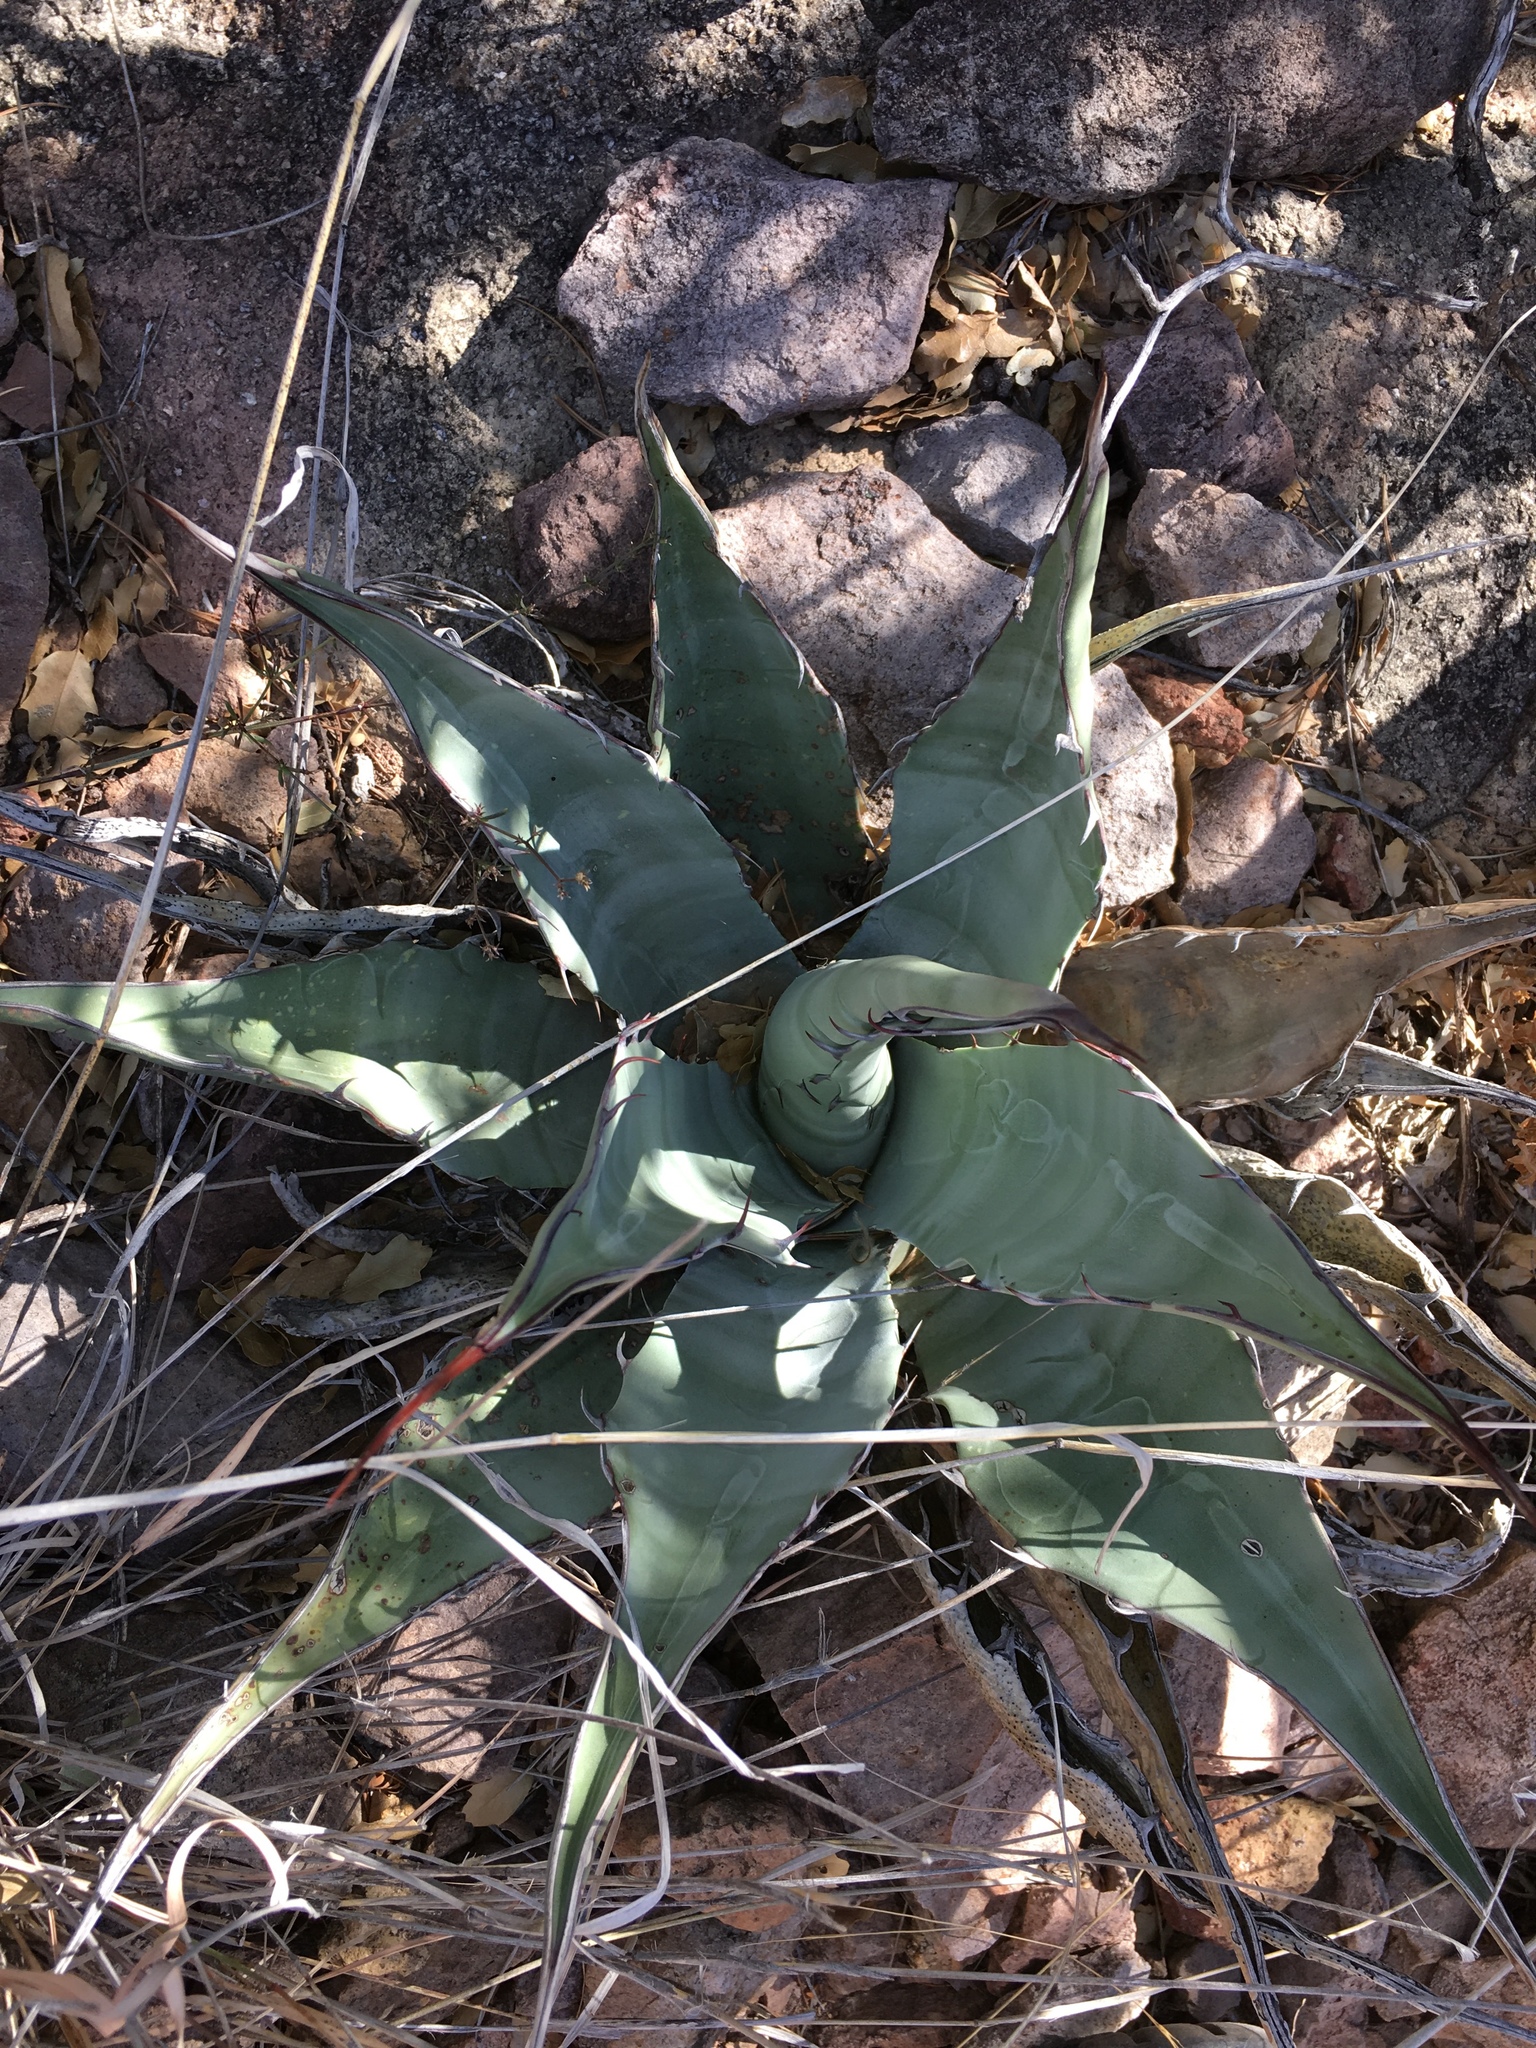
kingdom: Plantae
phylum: Tracheophyta
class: Liliopsida
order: Asparagales
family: Asparagaceae
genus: Agave
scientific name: Agave havardiana
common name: Havard agave
